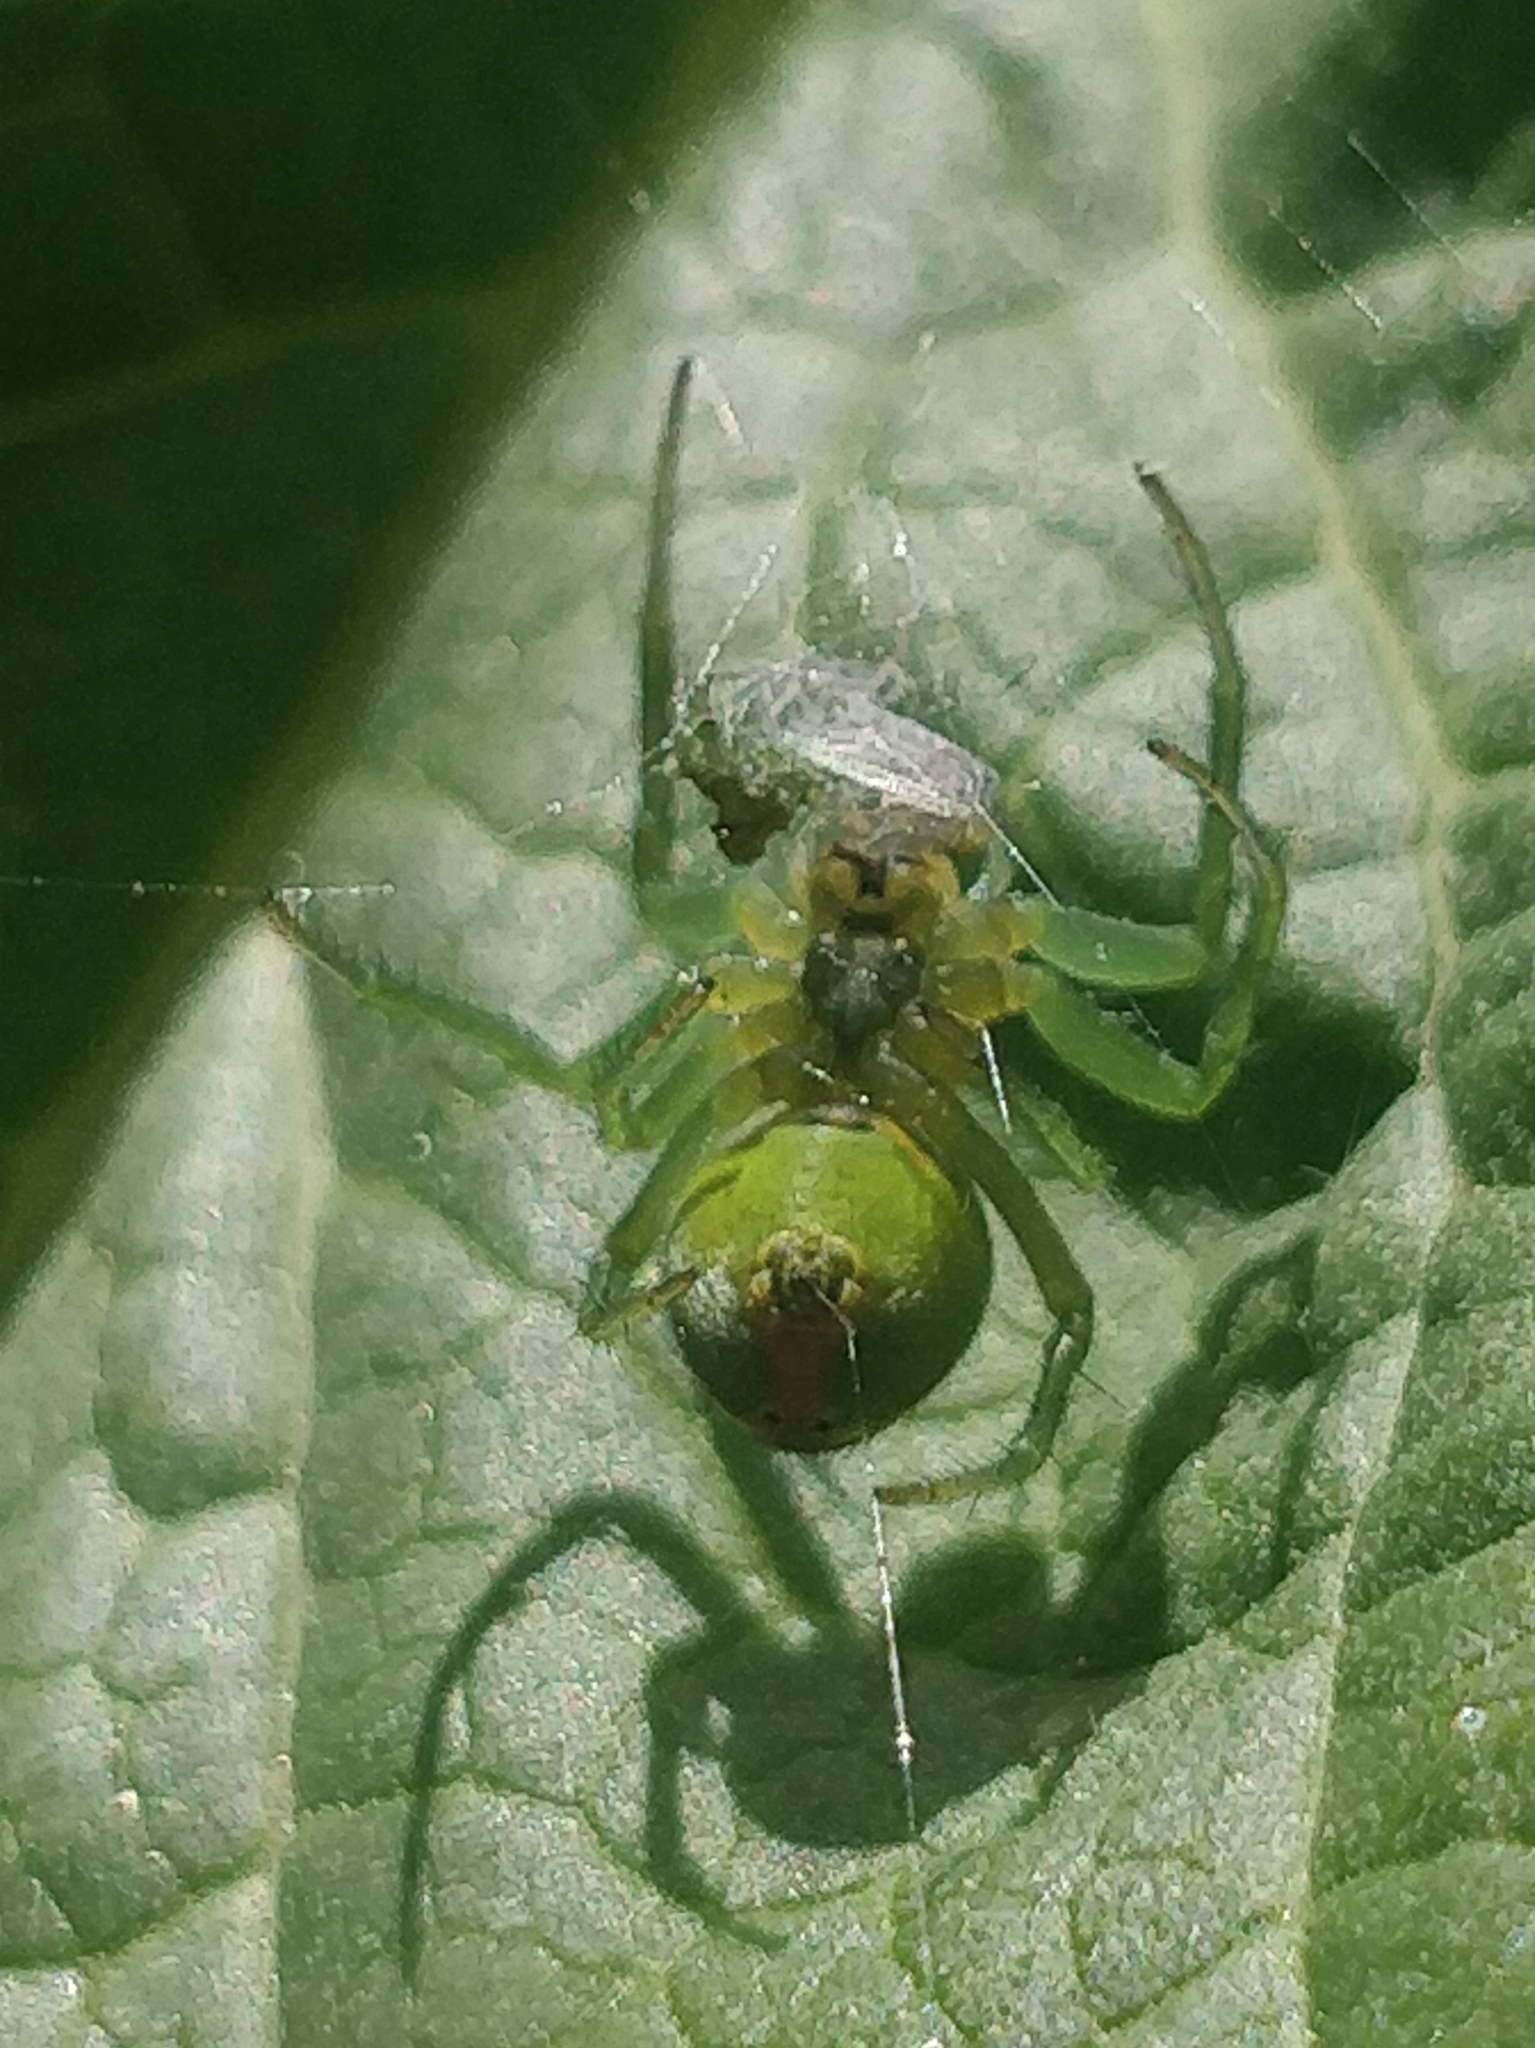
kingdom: Animalia
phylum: Arthropoda
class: Arachnida
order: Araneae
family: Araneidae
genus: Araniella
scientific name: Araniella maderiana
